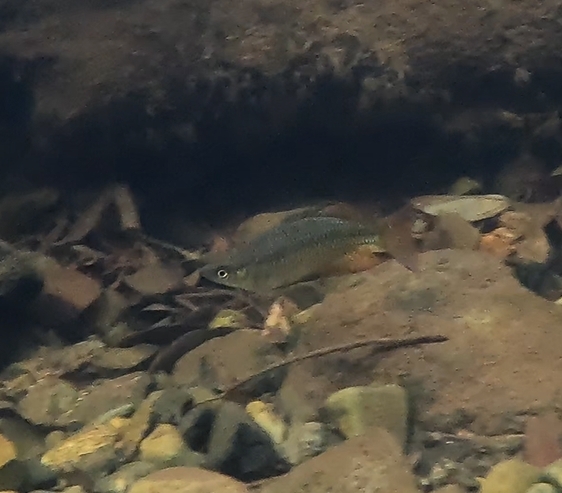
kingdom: Animalia
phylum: Chordata
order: Atheriniformes
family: Melanotaeniidae
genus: Melanotaenia
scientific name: Melanotaenia splendida
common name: Checkered rainbowfish
